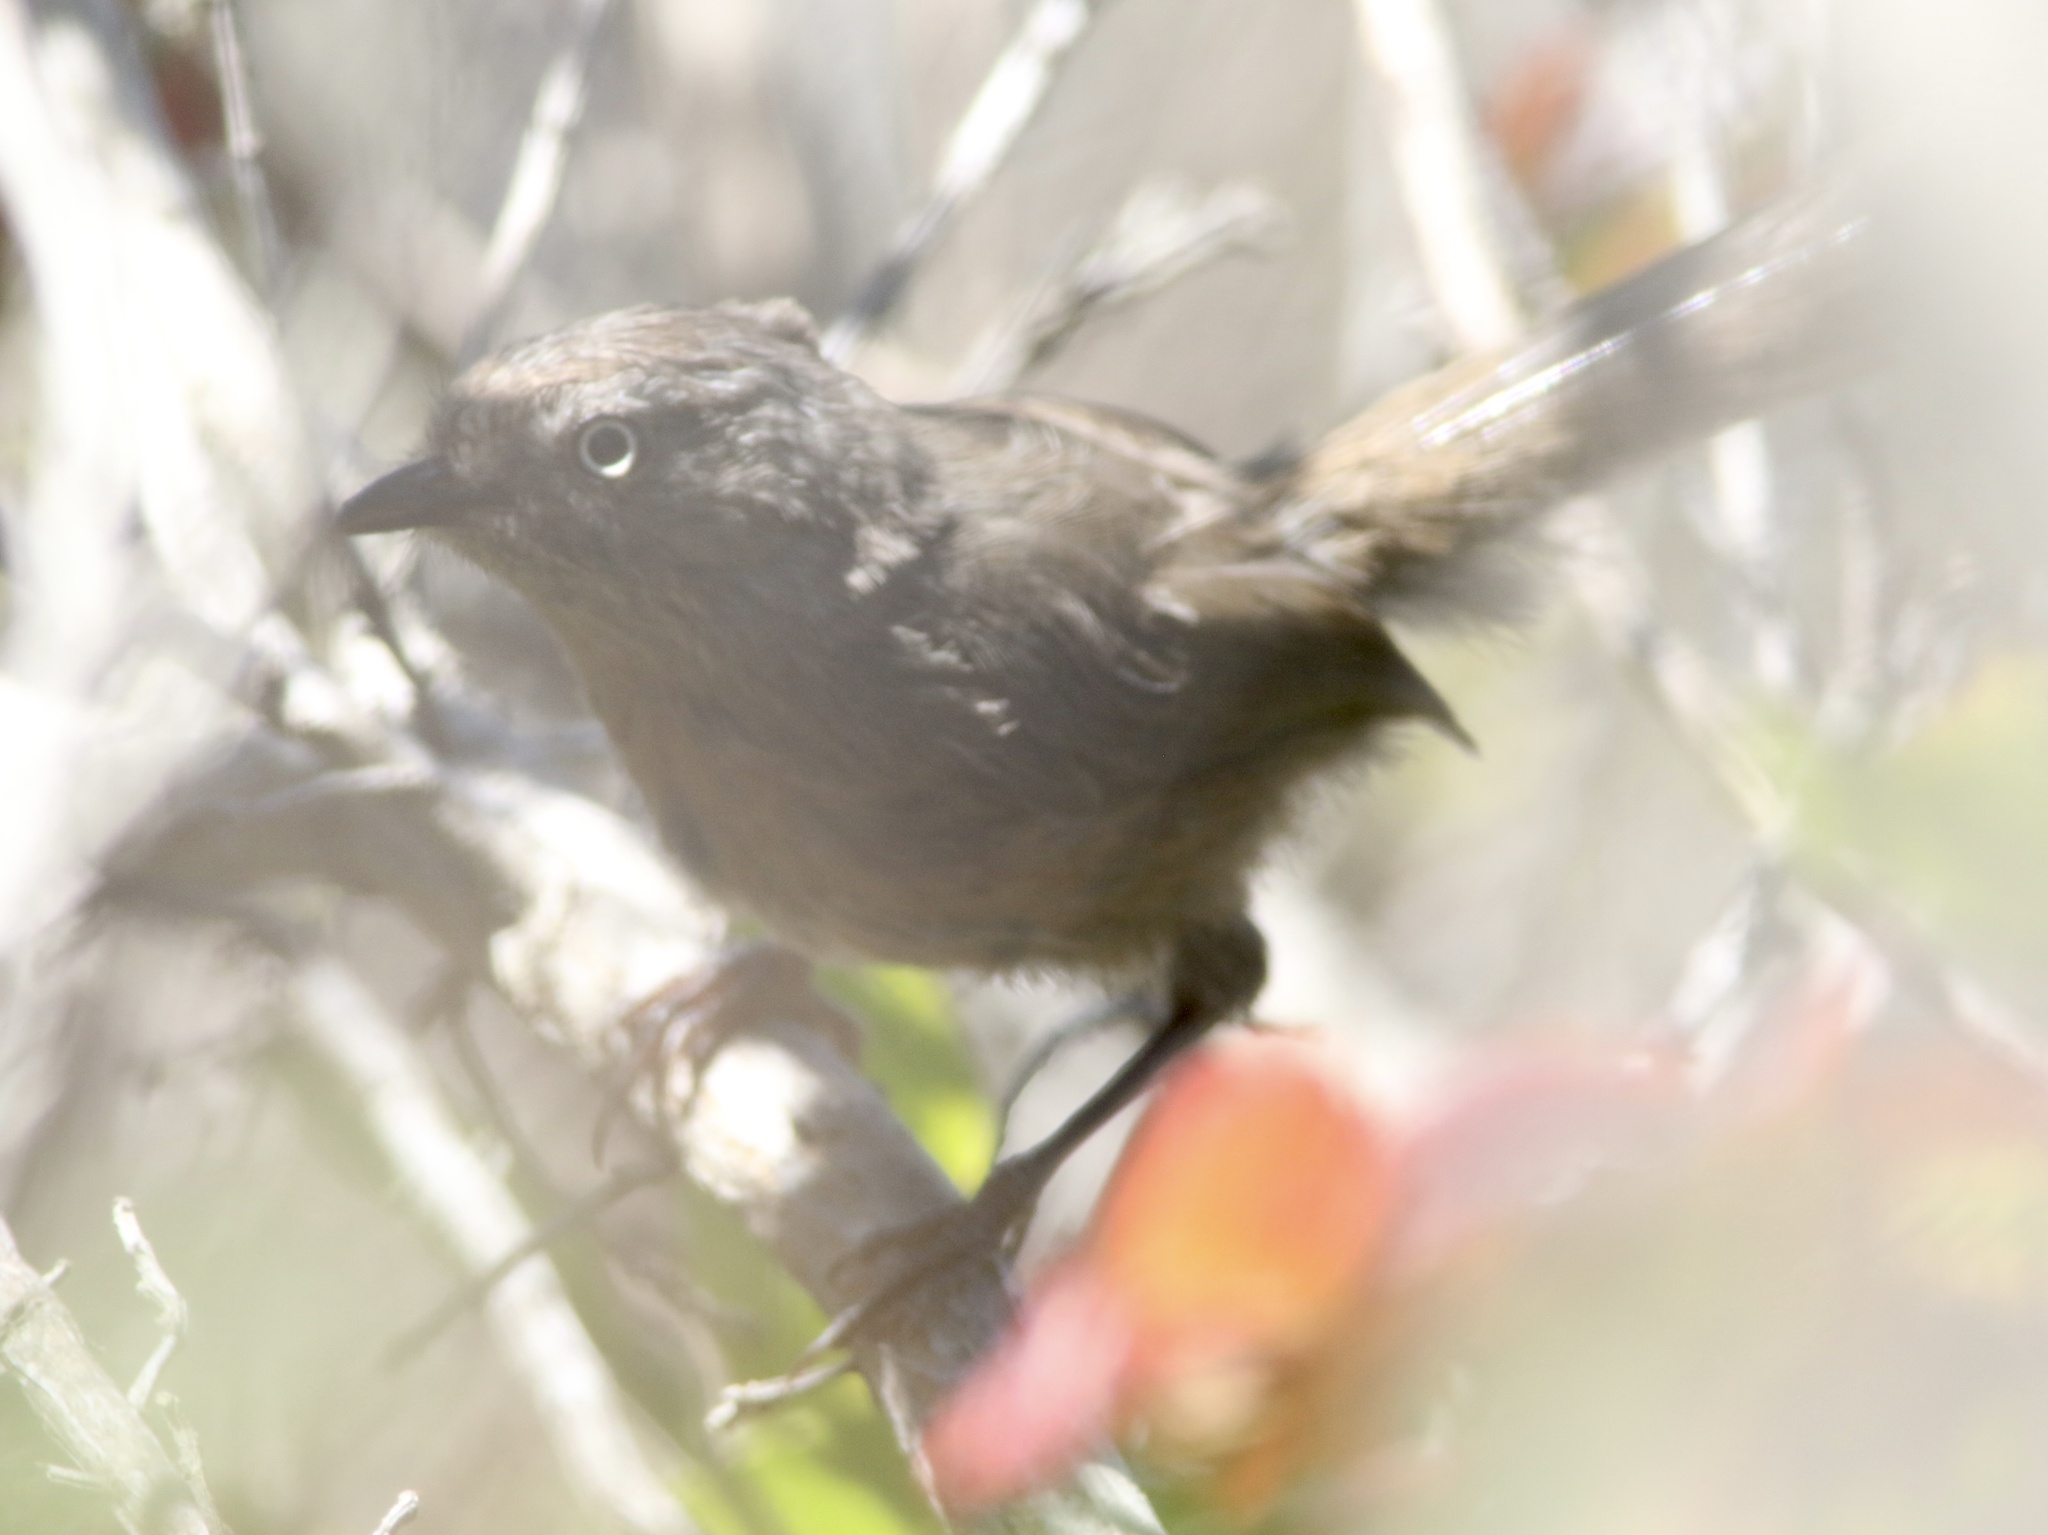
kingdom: Animalia
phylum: Chordata
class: Aves
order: Passeriformes
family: Sylviidae
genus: Chamaea
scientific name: Chamaea fasciata
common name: Wrentit
